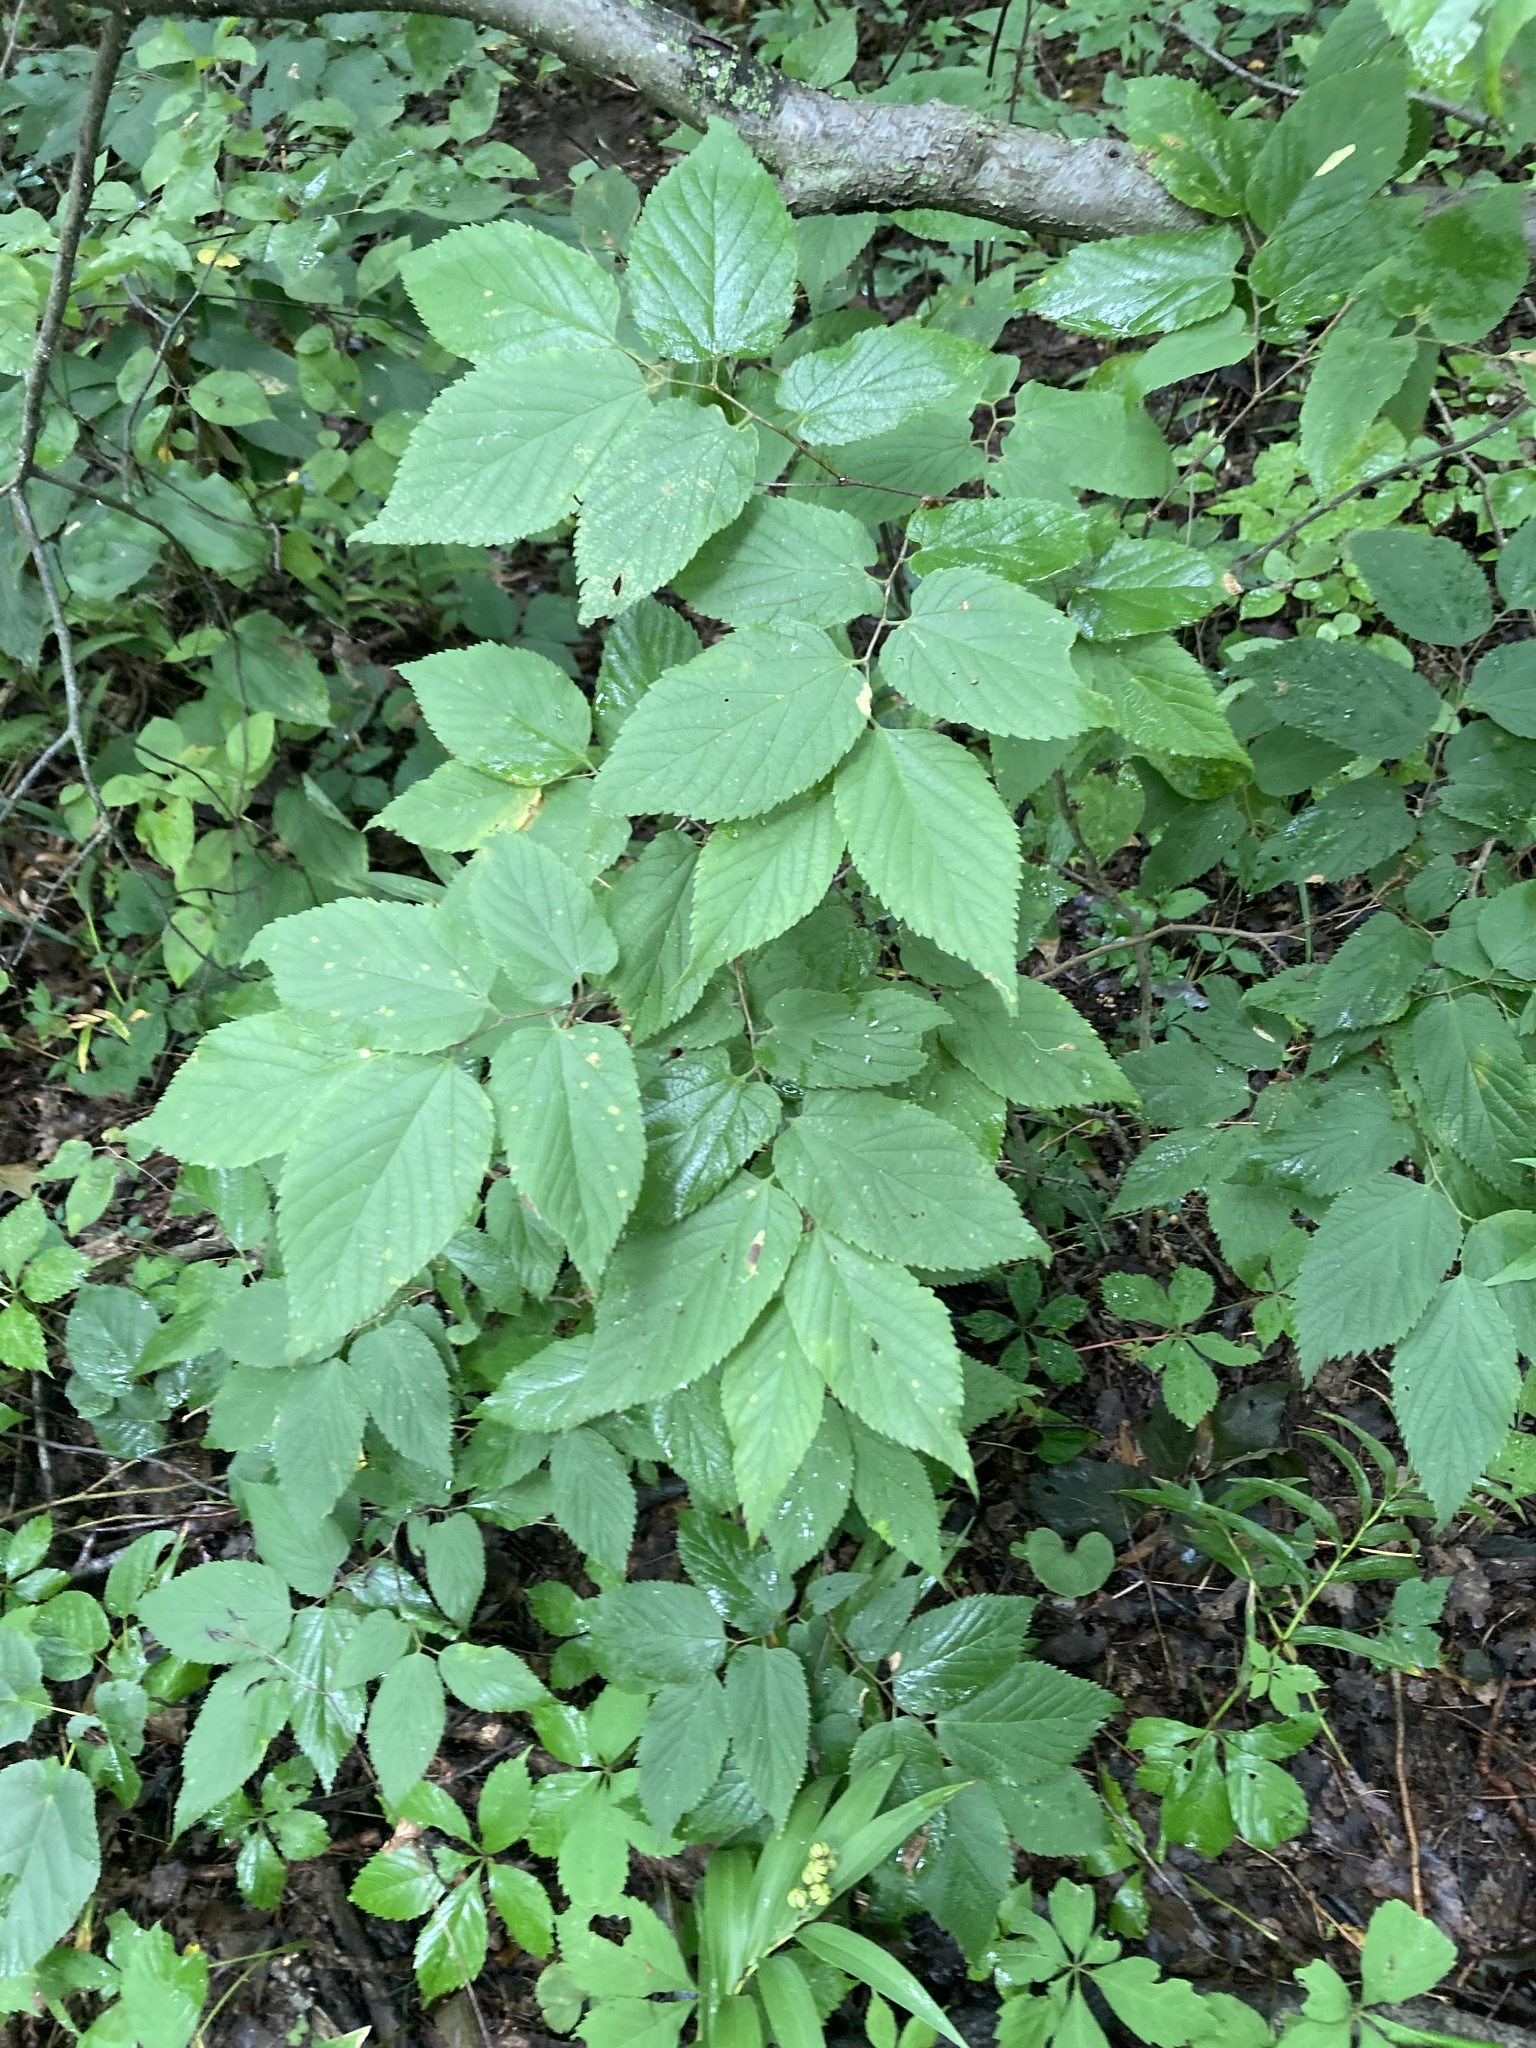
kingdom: Plantae
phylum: Tracheophyta
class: Magnoliopsida
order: Rosales
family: Cannabaceae
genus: Celtis
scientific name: Celtis occidentalis
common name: Common hackberry
